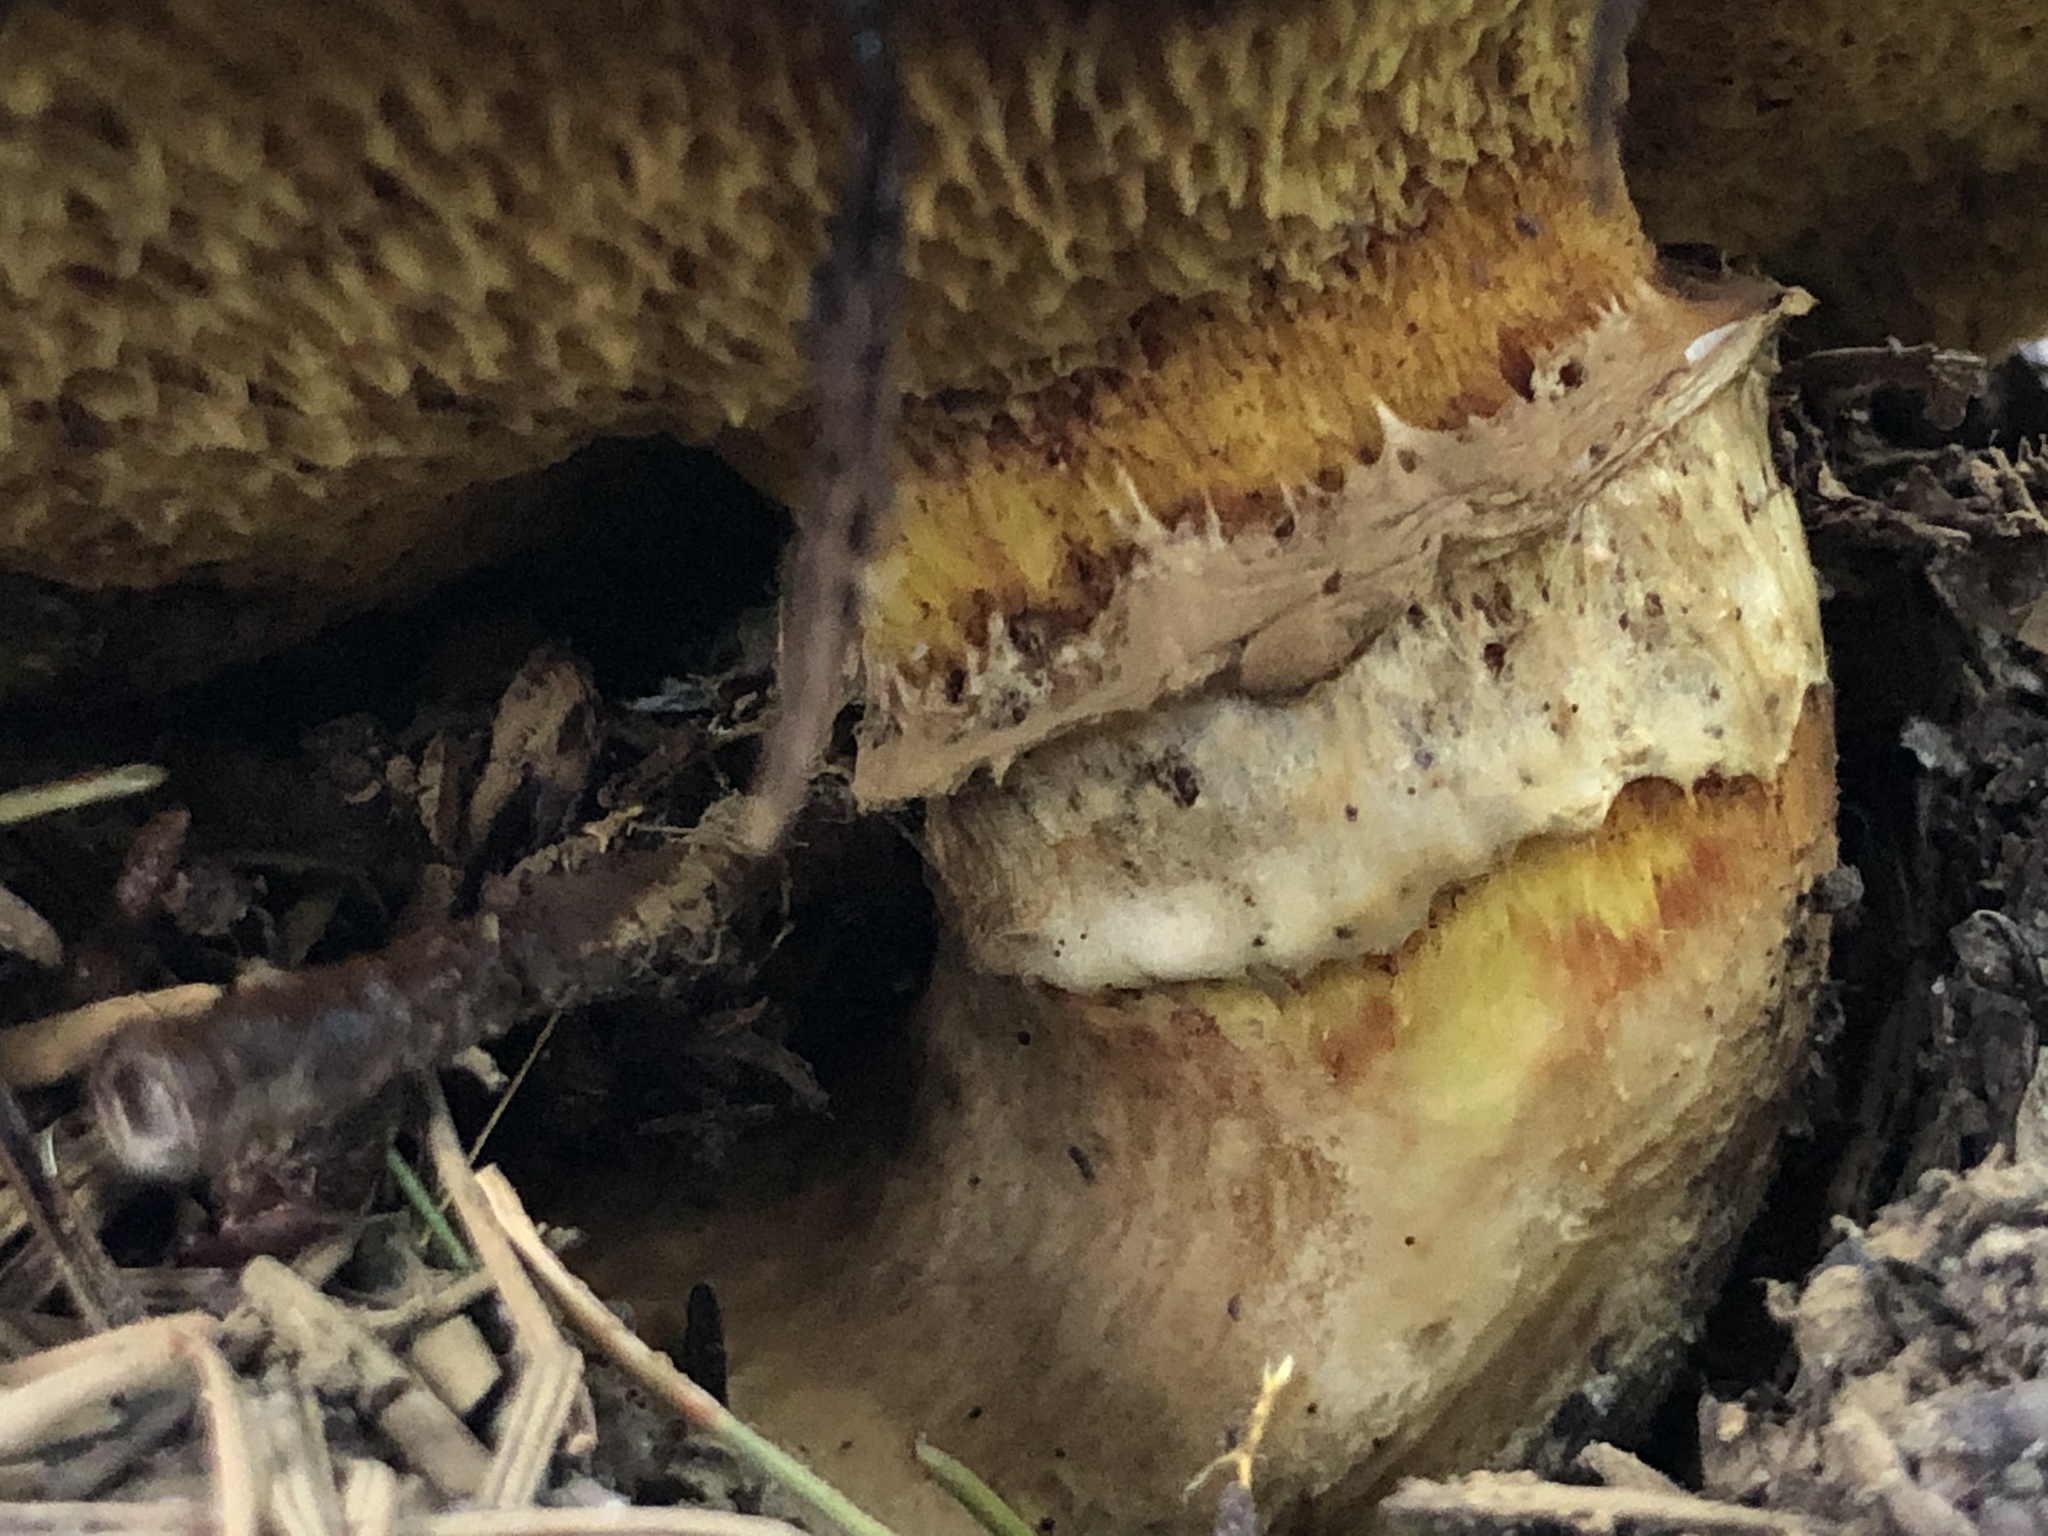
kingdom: Fungi
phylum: Basidiomycota
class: Agaricomycetes
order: Boletales
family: Suillaceae
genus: Suillus
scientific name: Suillus caerulescens
